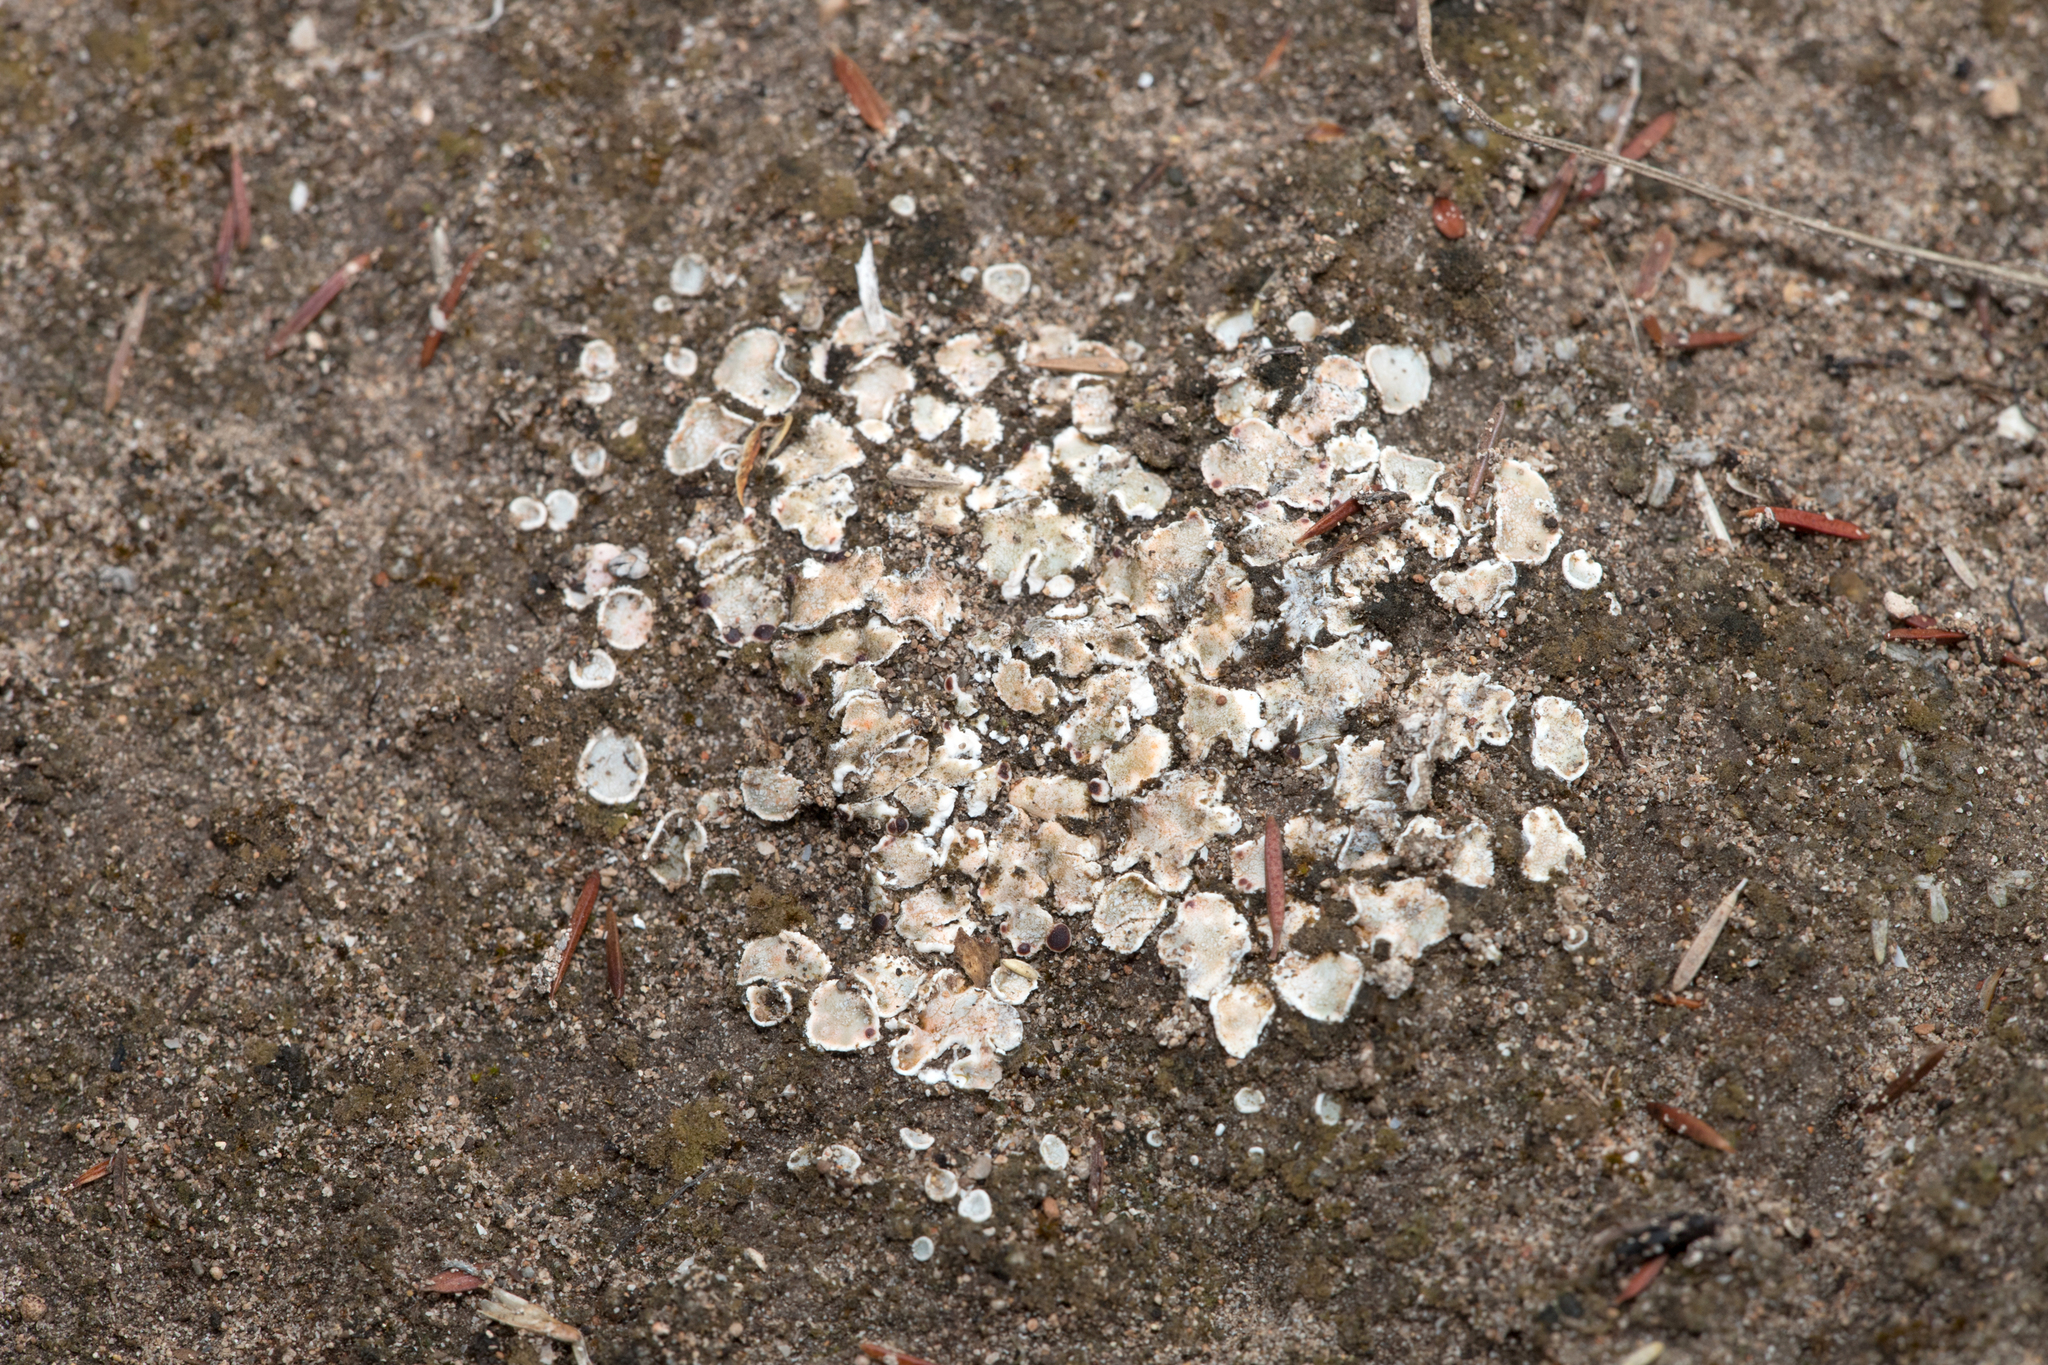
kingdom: Fungi
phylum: Ascomycota
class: Lecanoromycetes
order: Lecanorales
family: Psoraceae
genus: Psora
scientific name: Psora decipiens
